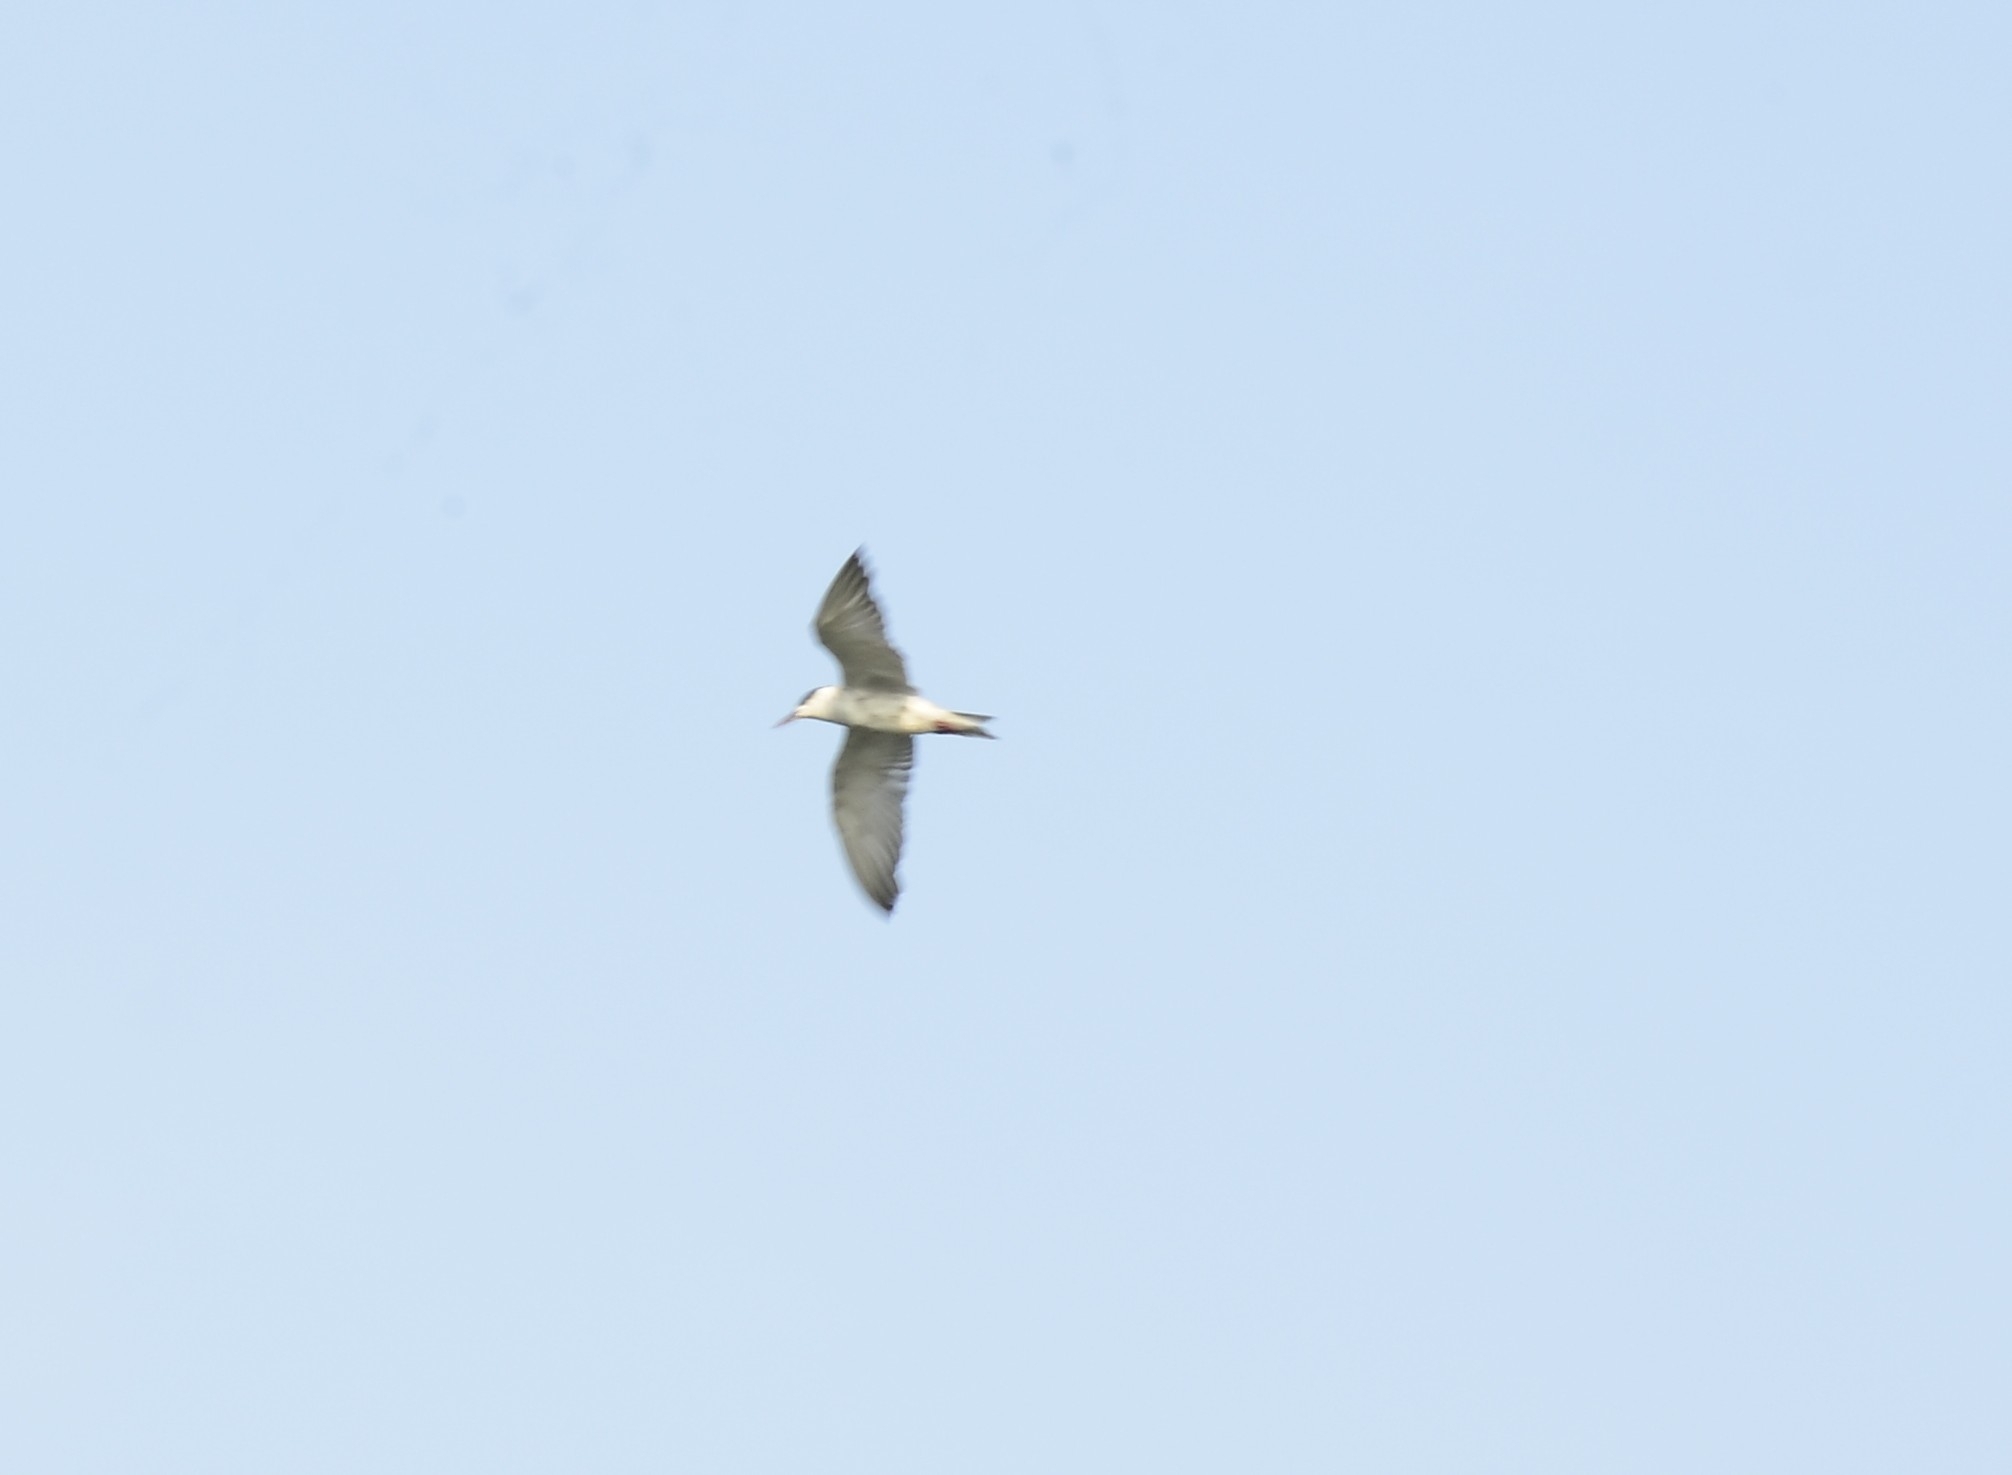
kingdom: Animalia
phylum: Chordata
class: Aves
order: Charadriiformes
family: Laridae
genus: Chlidonias
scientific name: Chlidonias hybrida
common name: Whiskered tern
